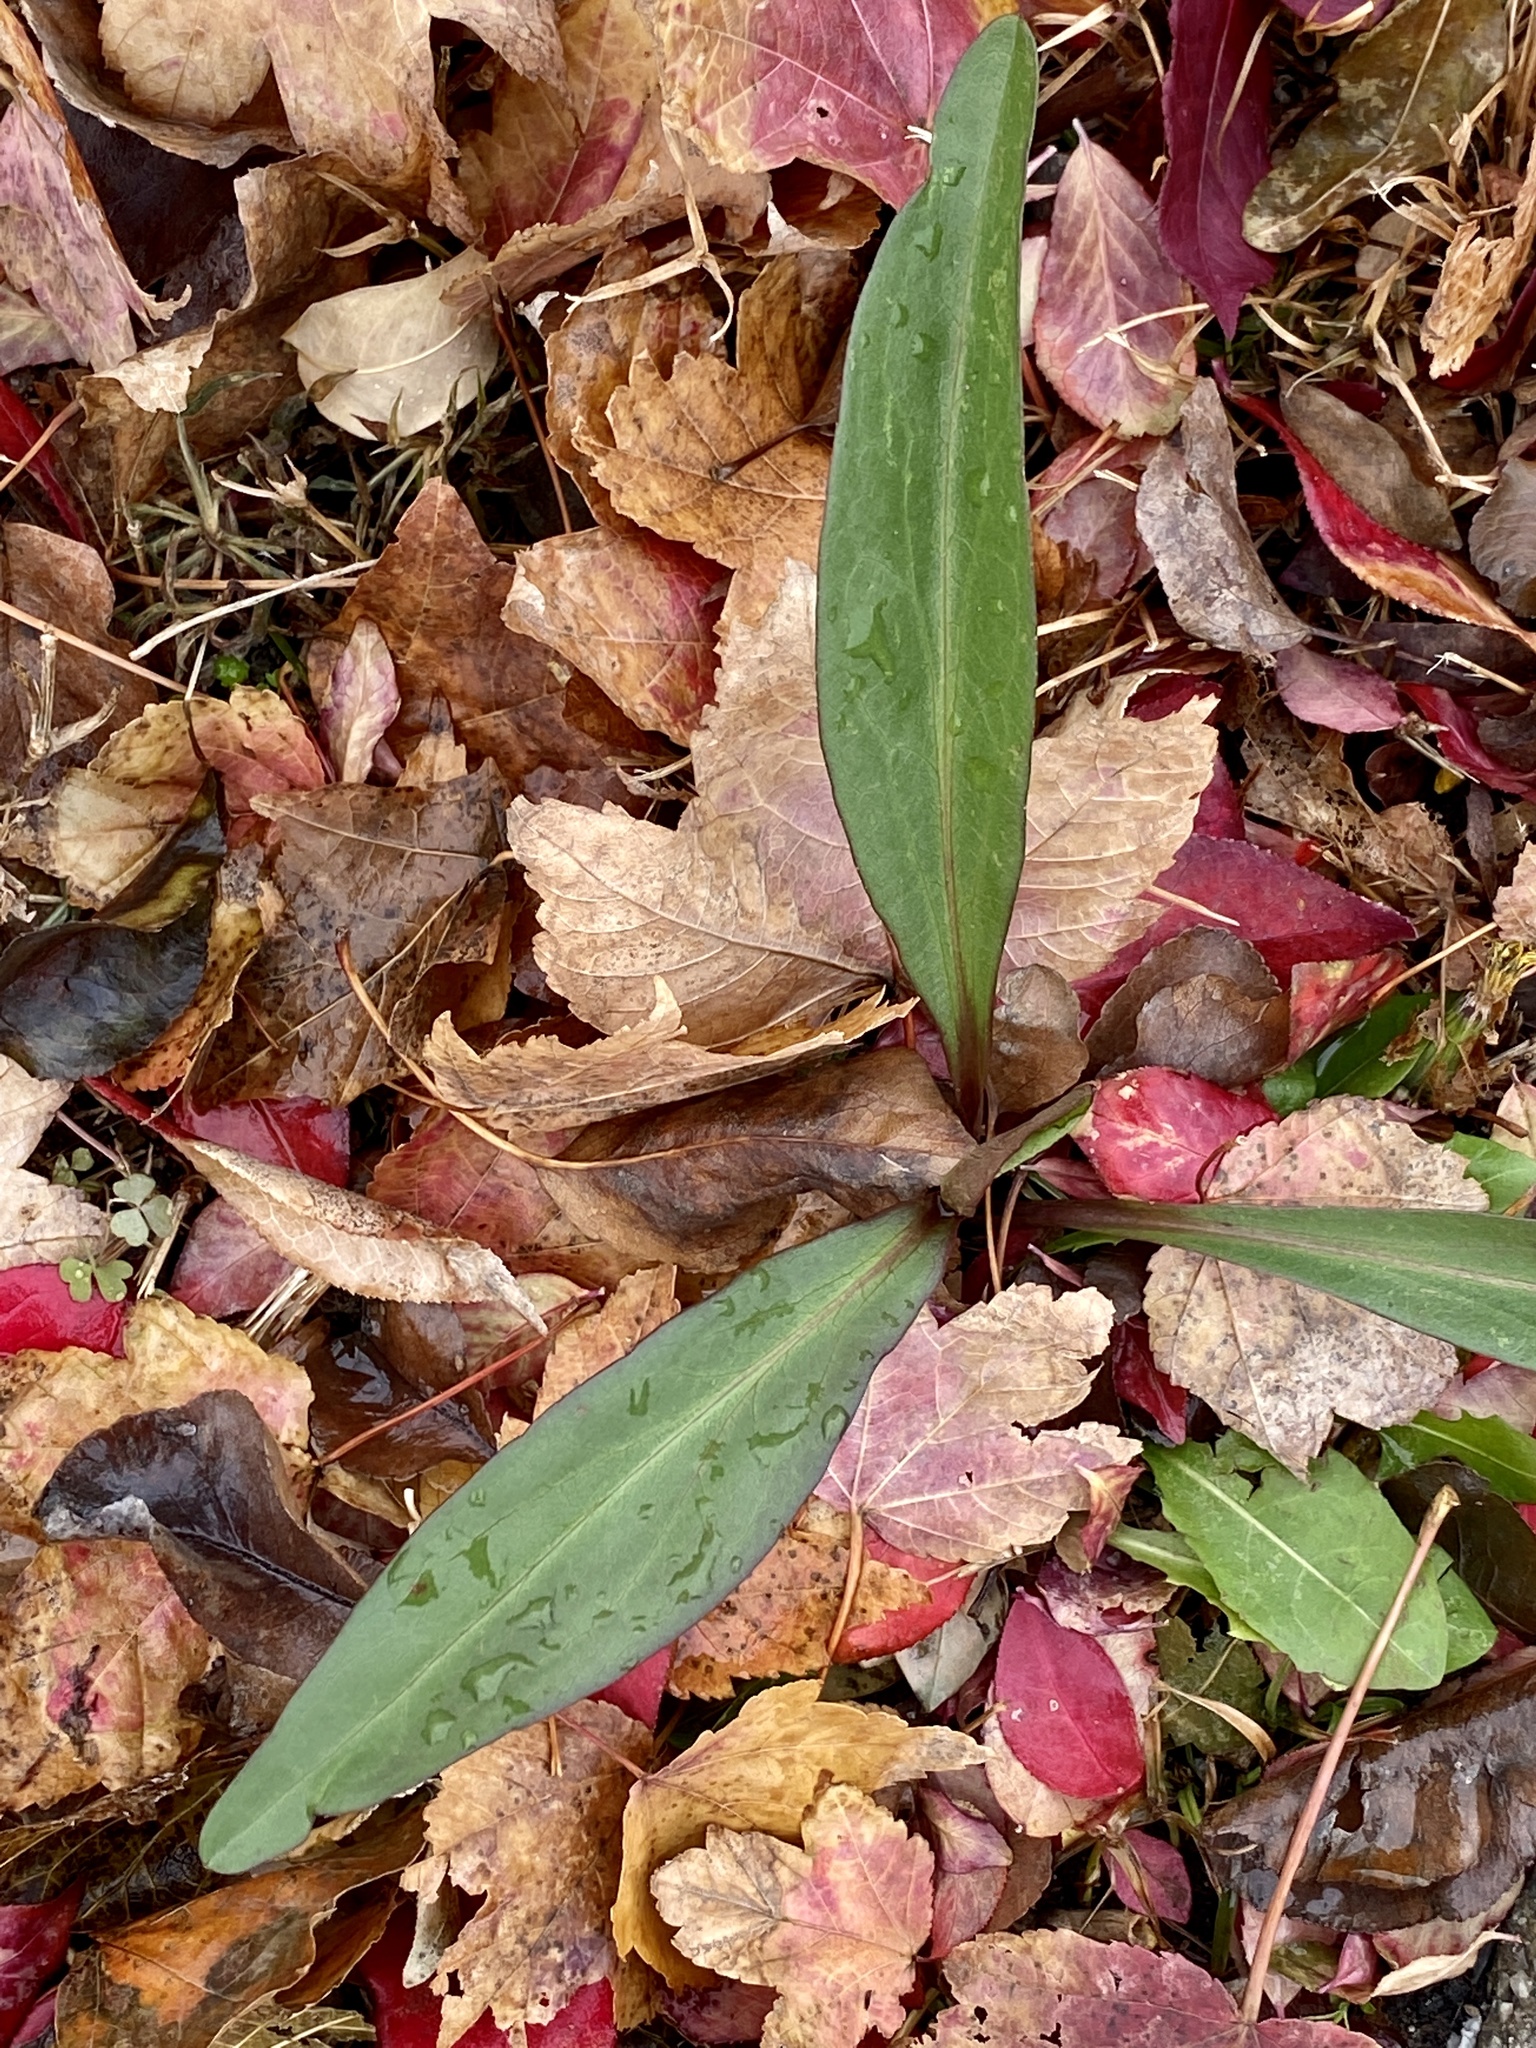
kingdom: Plantae
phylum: Tracheophyta
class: Magnoliopsida
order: Asterales
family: Asteraceae
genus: Solidago
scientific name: Solidago sempervirens
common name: Salt-marsh goldenrod
